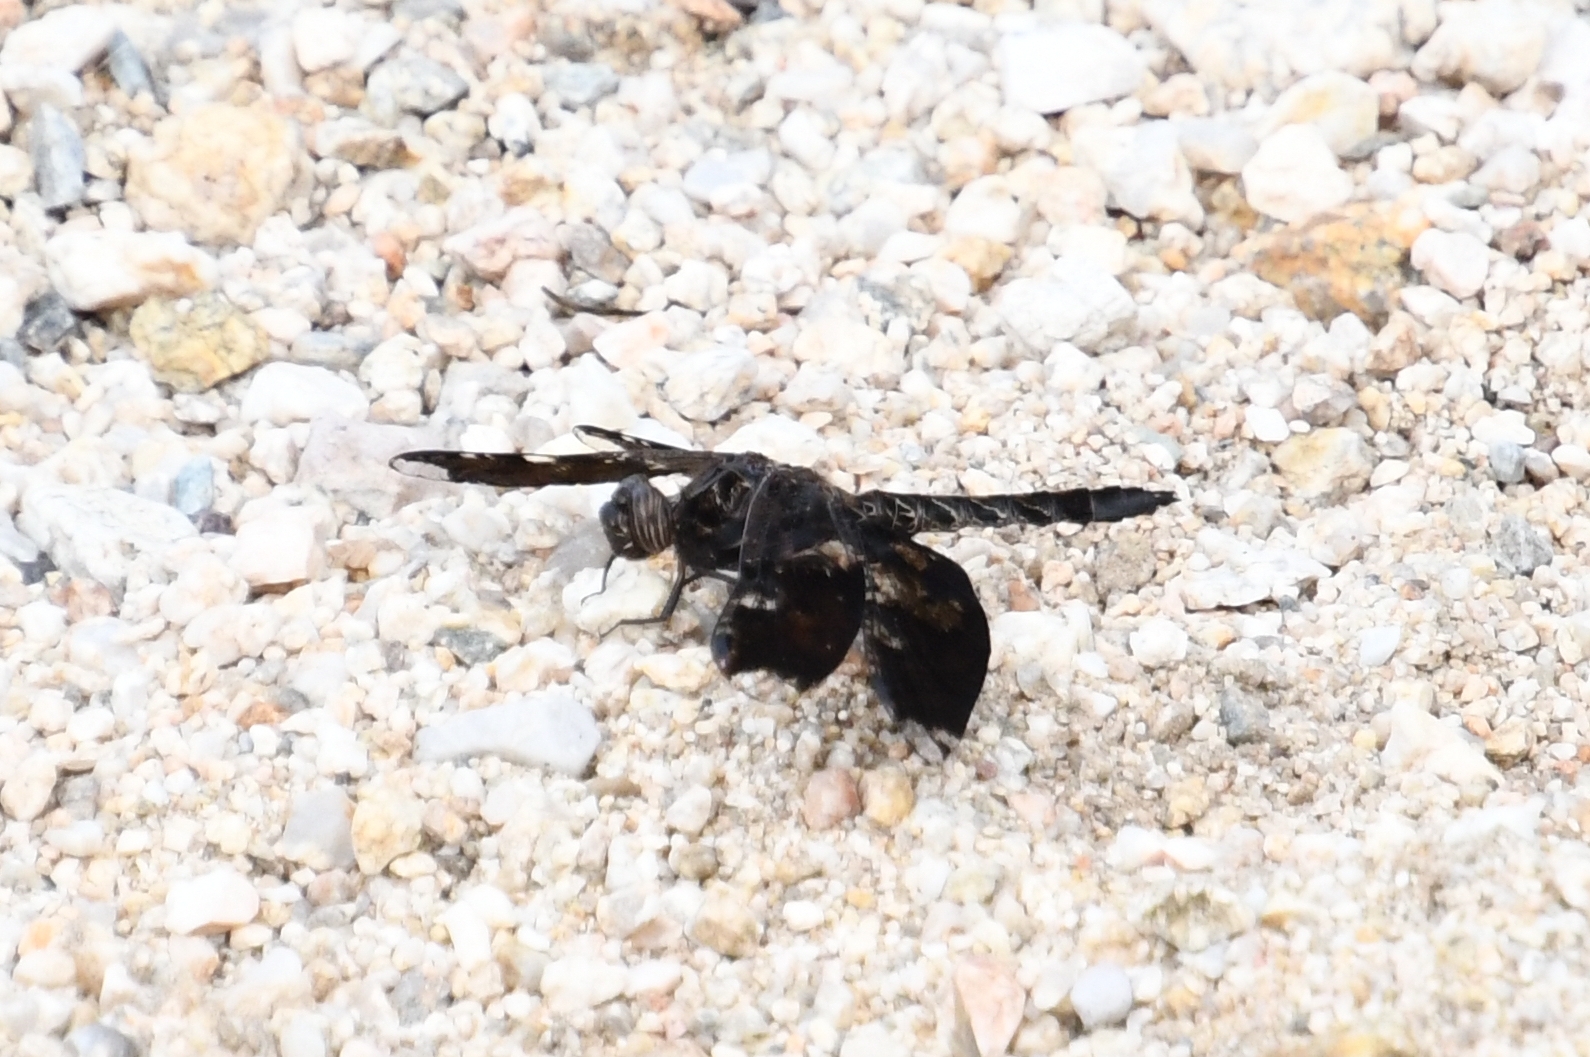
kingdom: Animalia
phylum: Arthropoda
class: Insecta
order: Odonata
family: Libellulidae
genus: Pseudoleon
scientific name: Pseudoleon superbus
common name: Filigree skimmer
